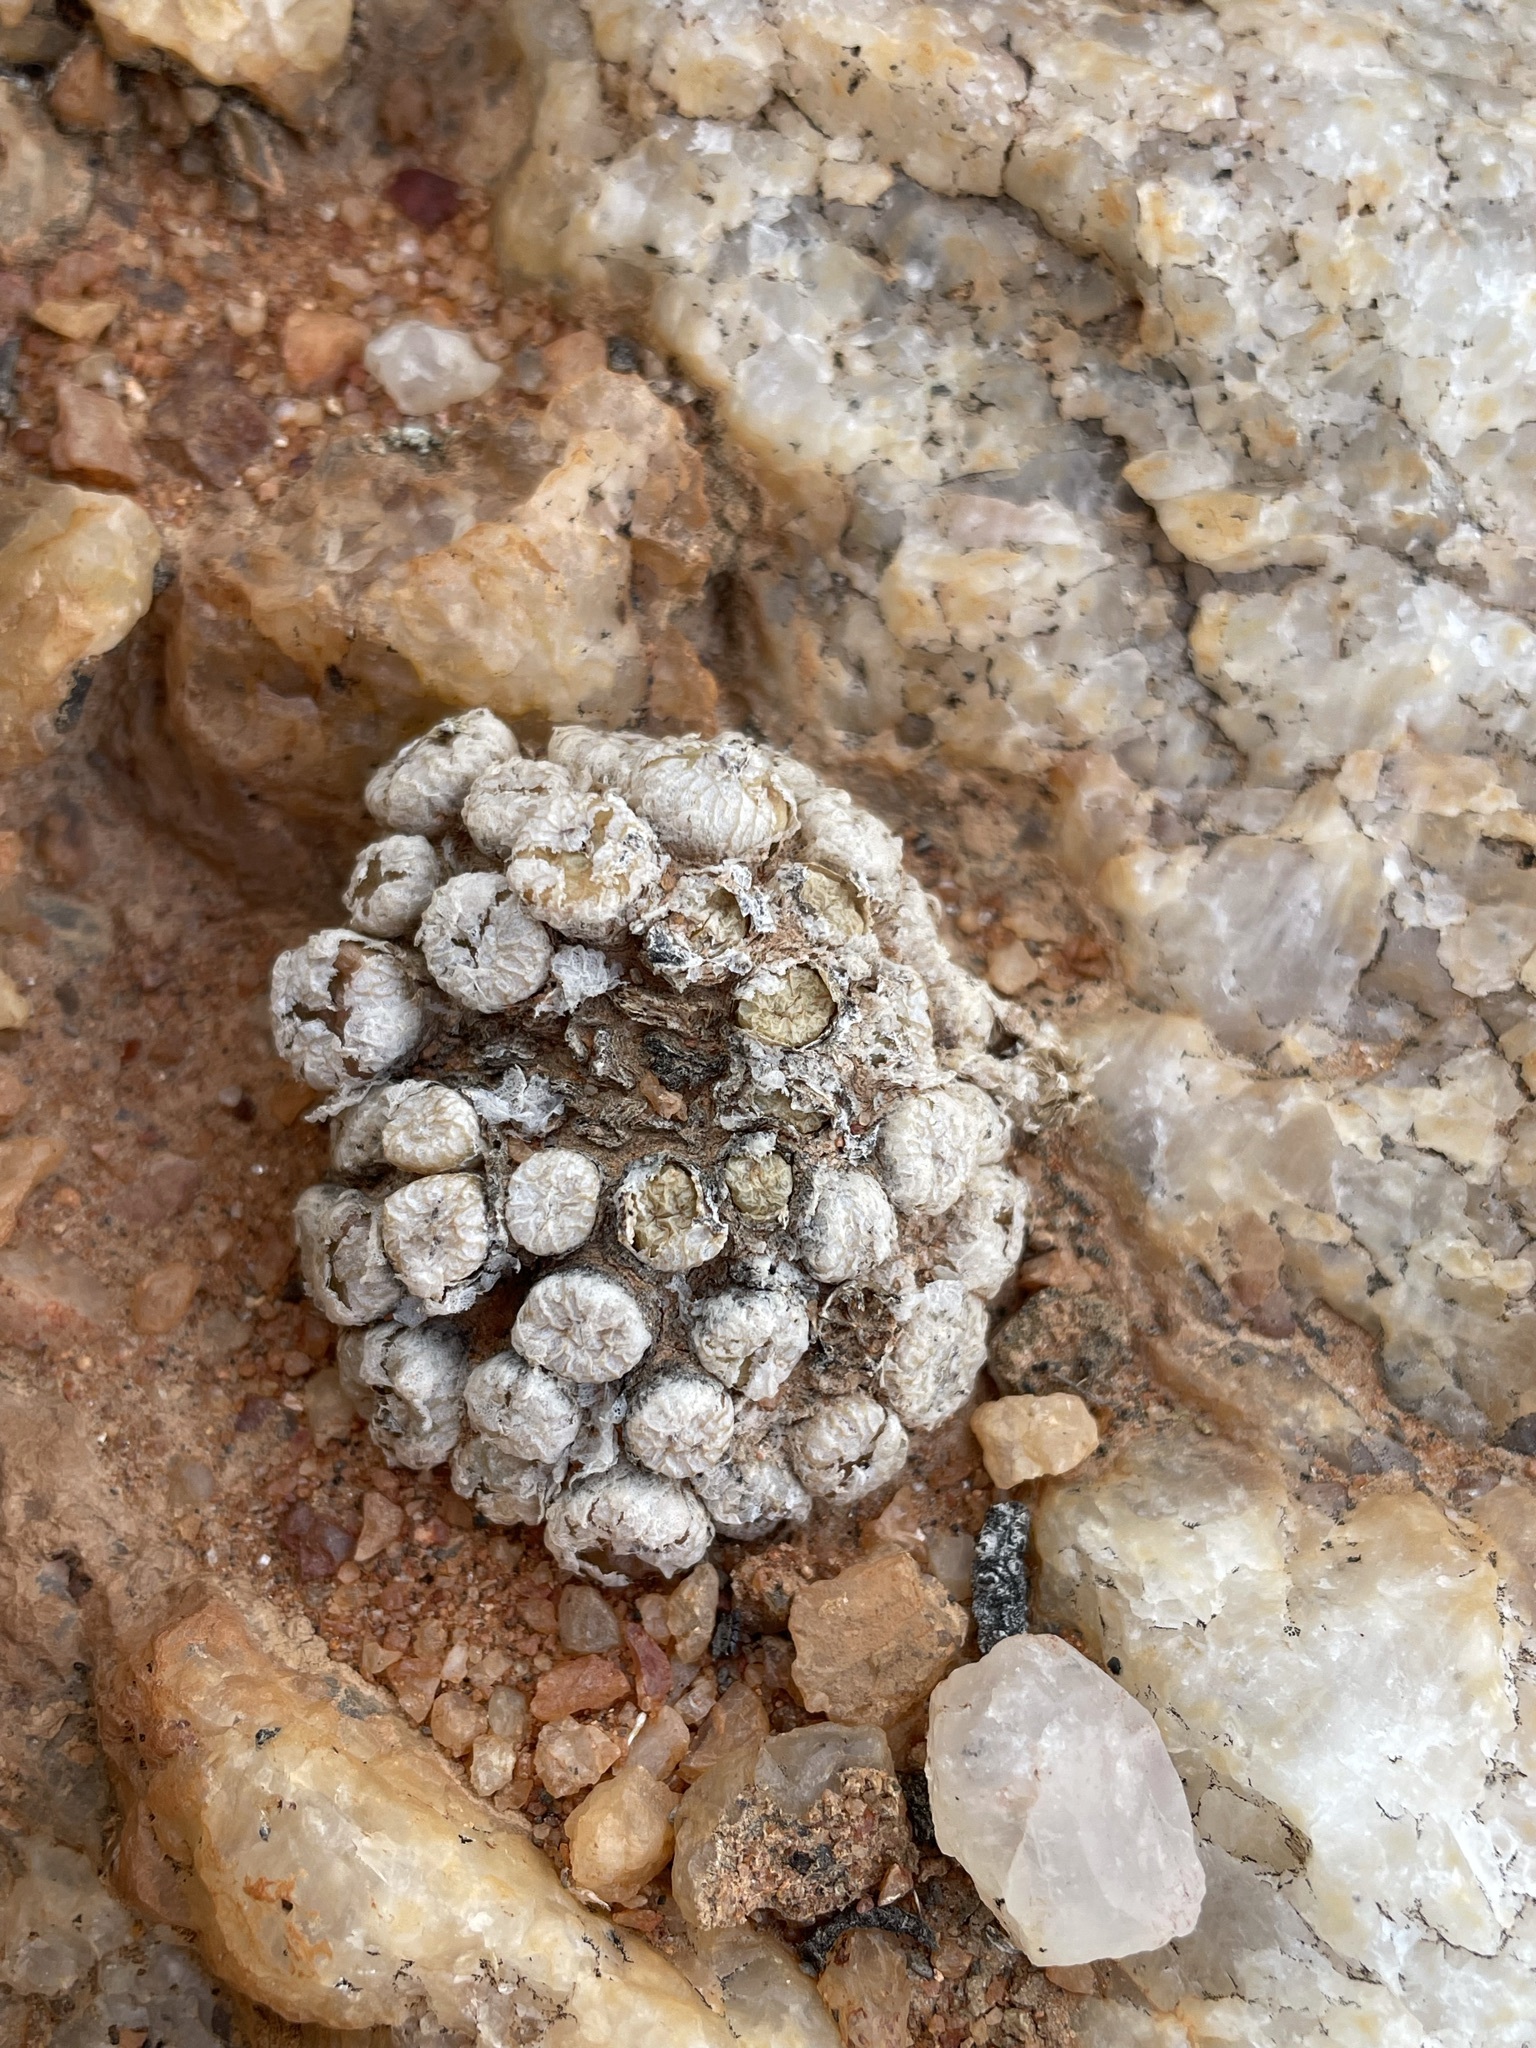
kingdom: Plantae
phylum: Tracheophyta
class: Magnoliopsida
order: Caryophyllales
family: Aizoaceae
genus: Conophytum
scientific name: Conophytum ectypum
